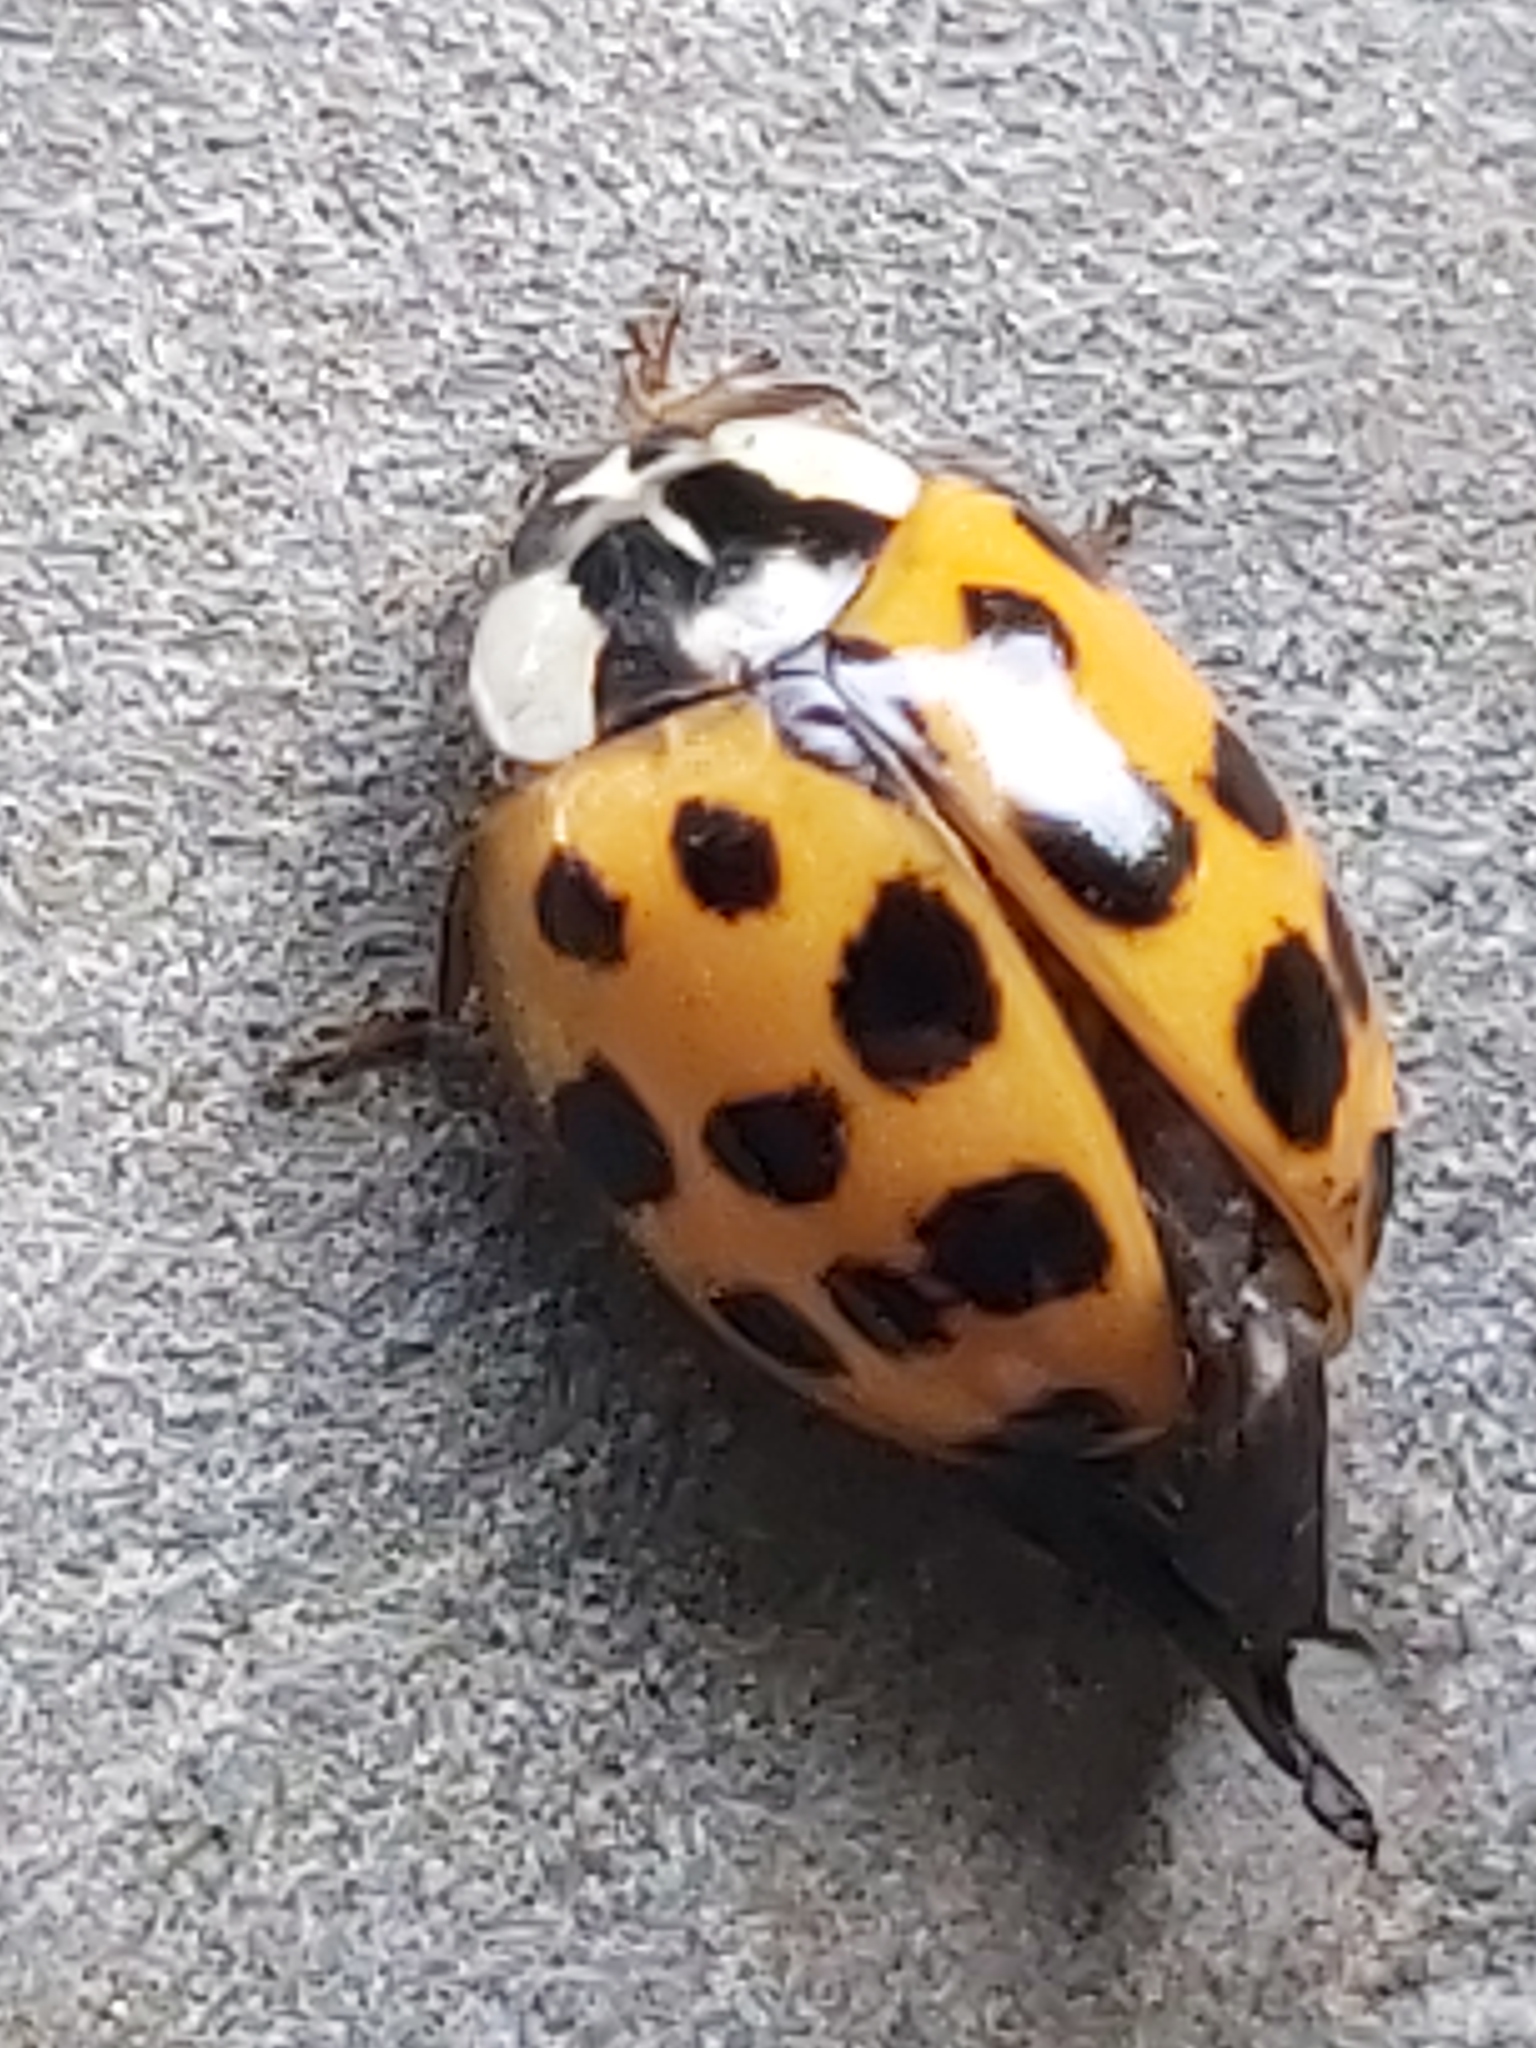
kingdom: Animalia
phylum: Arthropoda
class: Insecta
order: Coleoptera
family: Coccinellidae
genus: Harmonia
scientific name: Harmonia axyridis
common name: Harlequin ladybird
